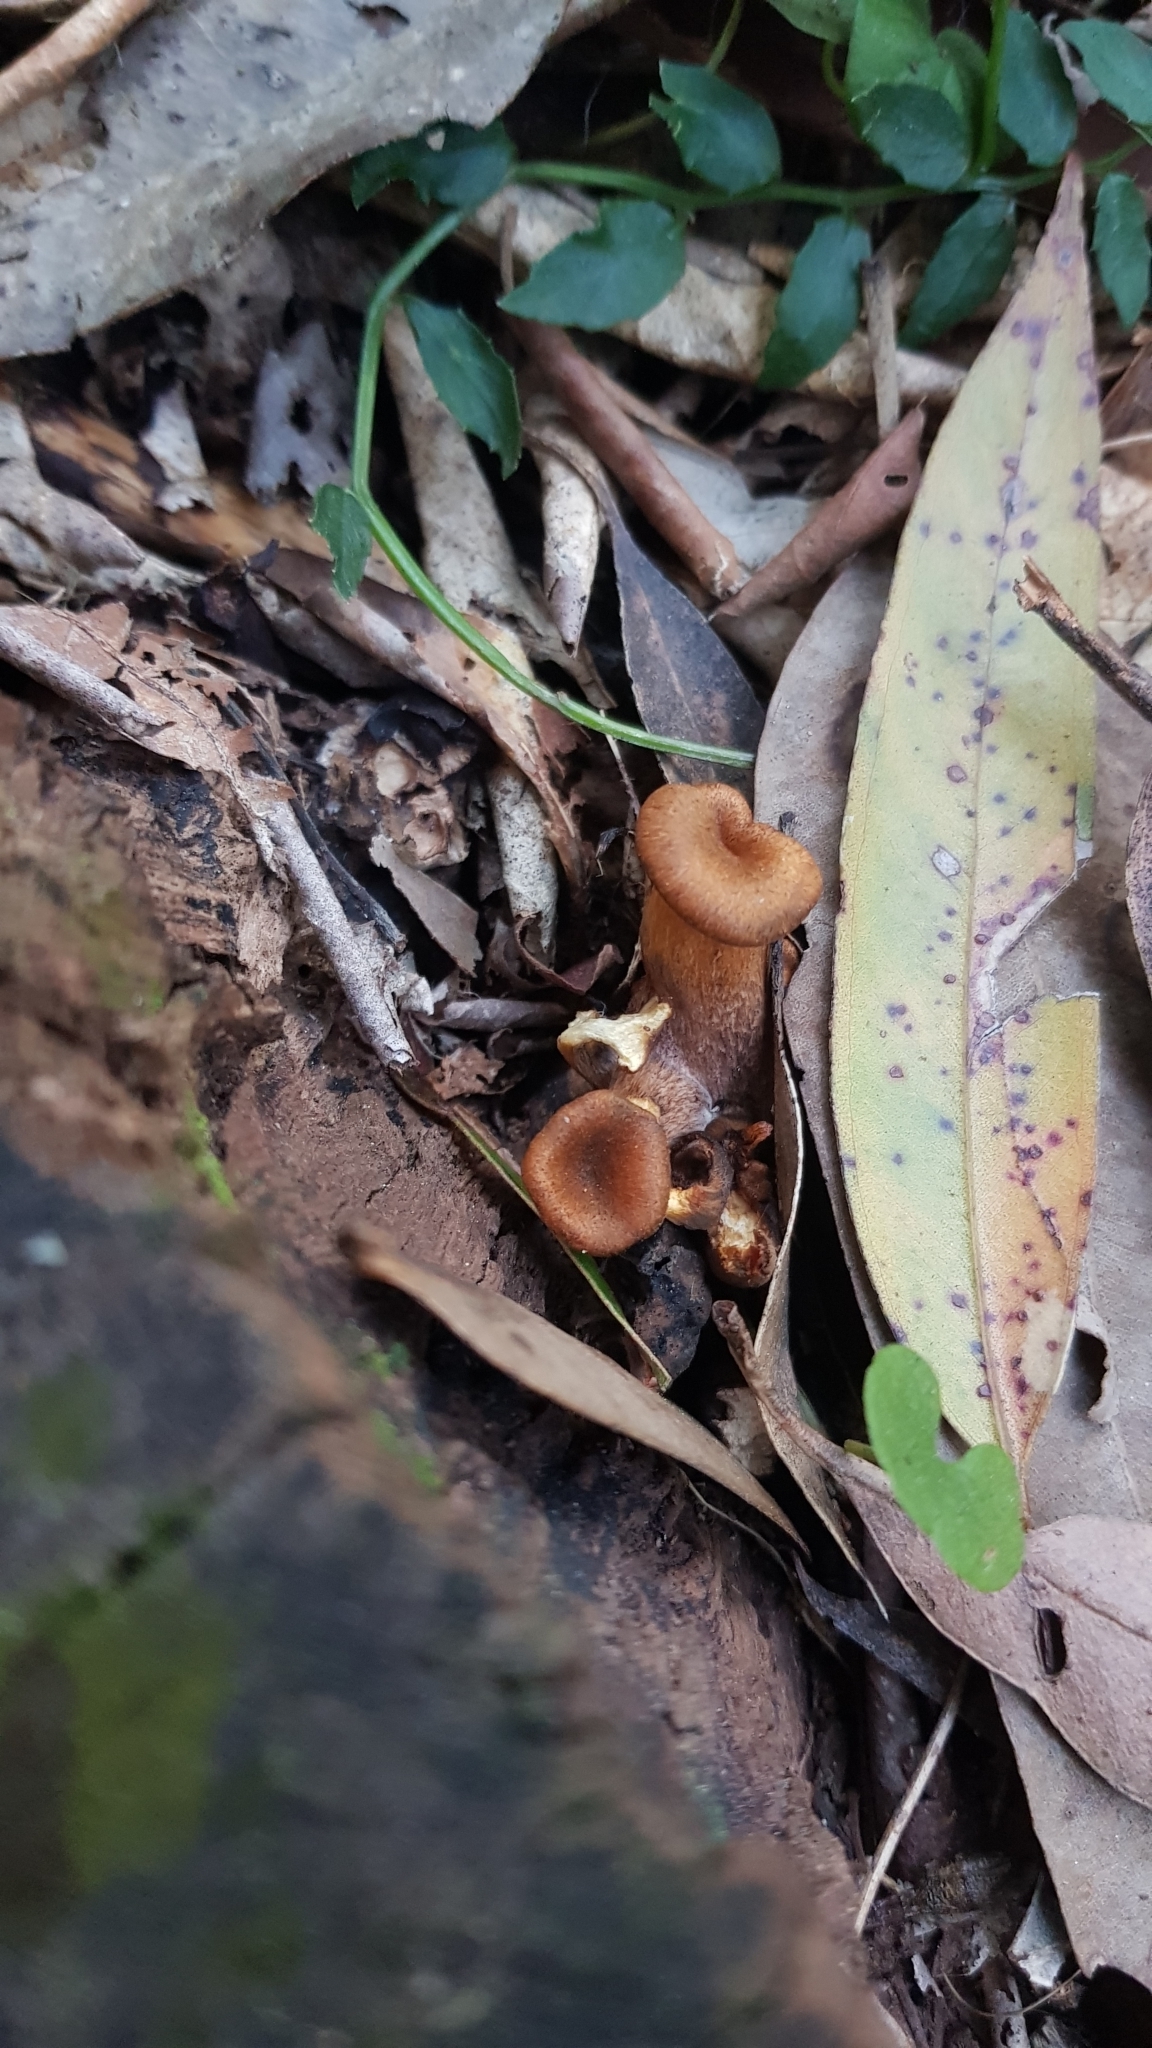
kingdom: Fungi
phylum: Basidiomycota
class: Agaricomycetes
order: Agaricales
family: Omphalotaceae
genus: Omphalotus
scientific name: Omphalotus nidiformis
